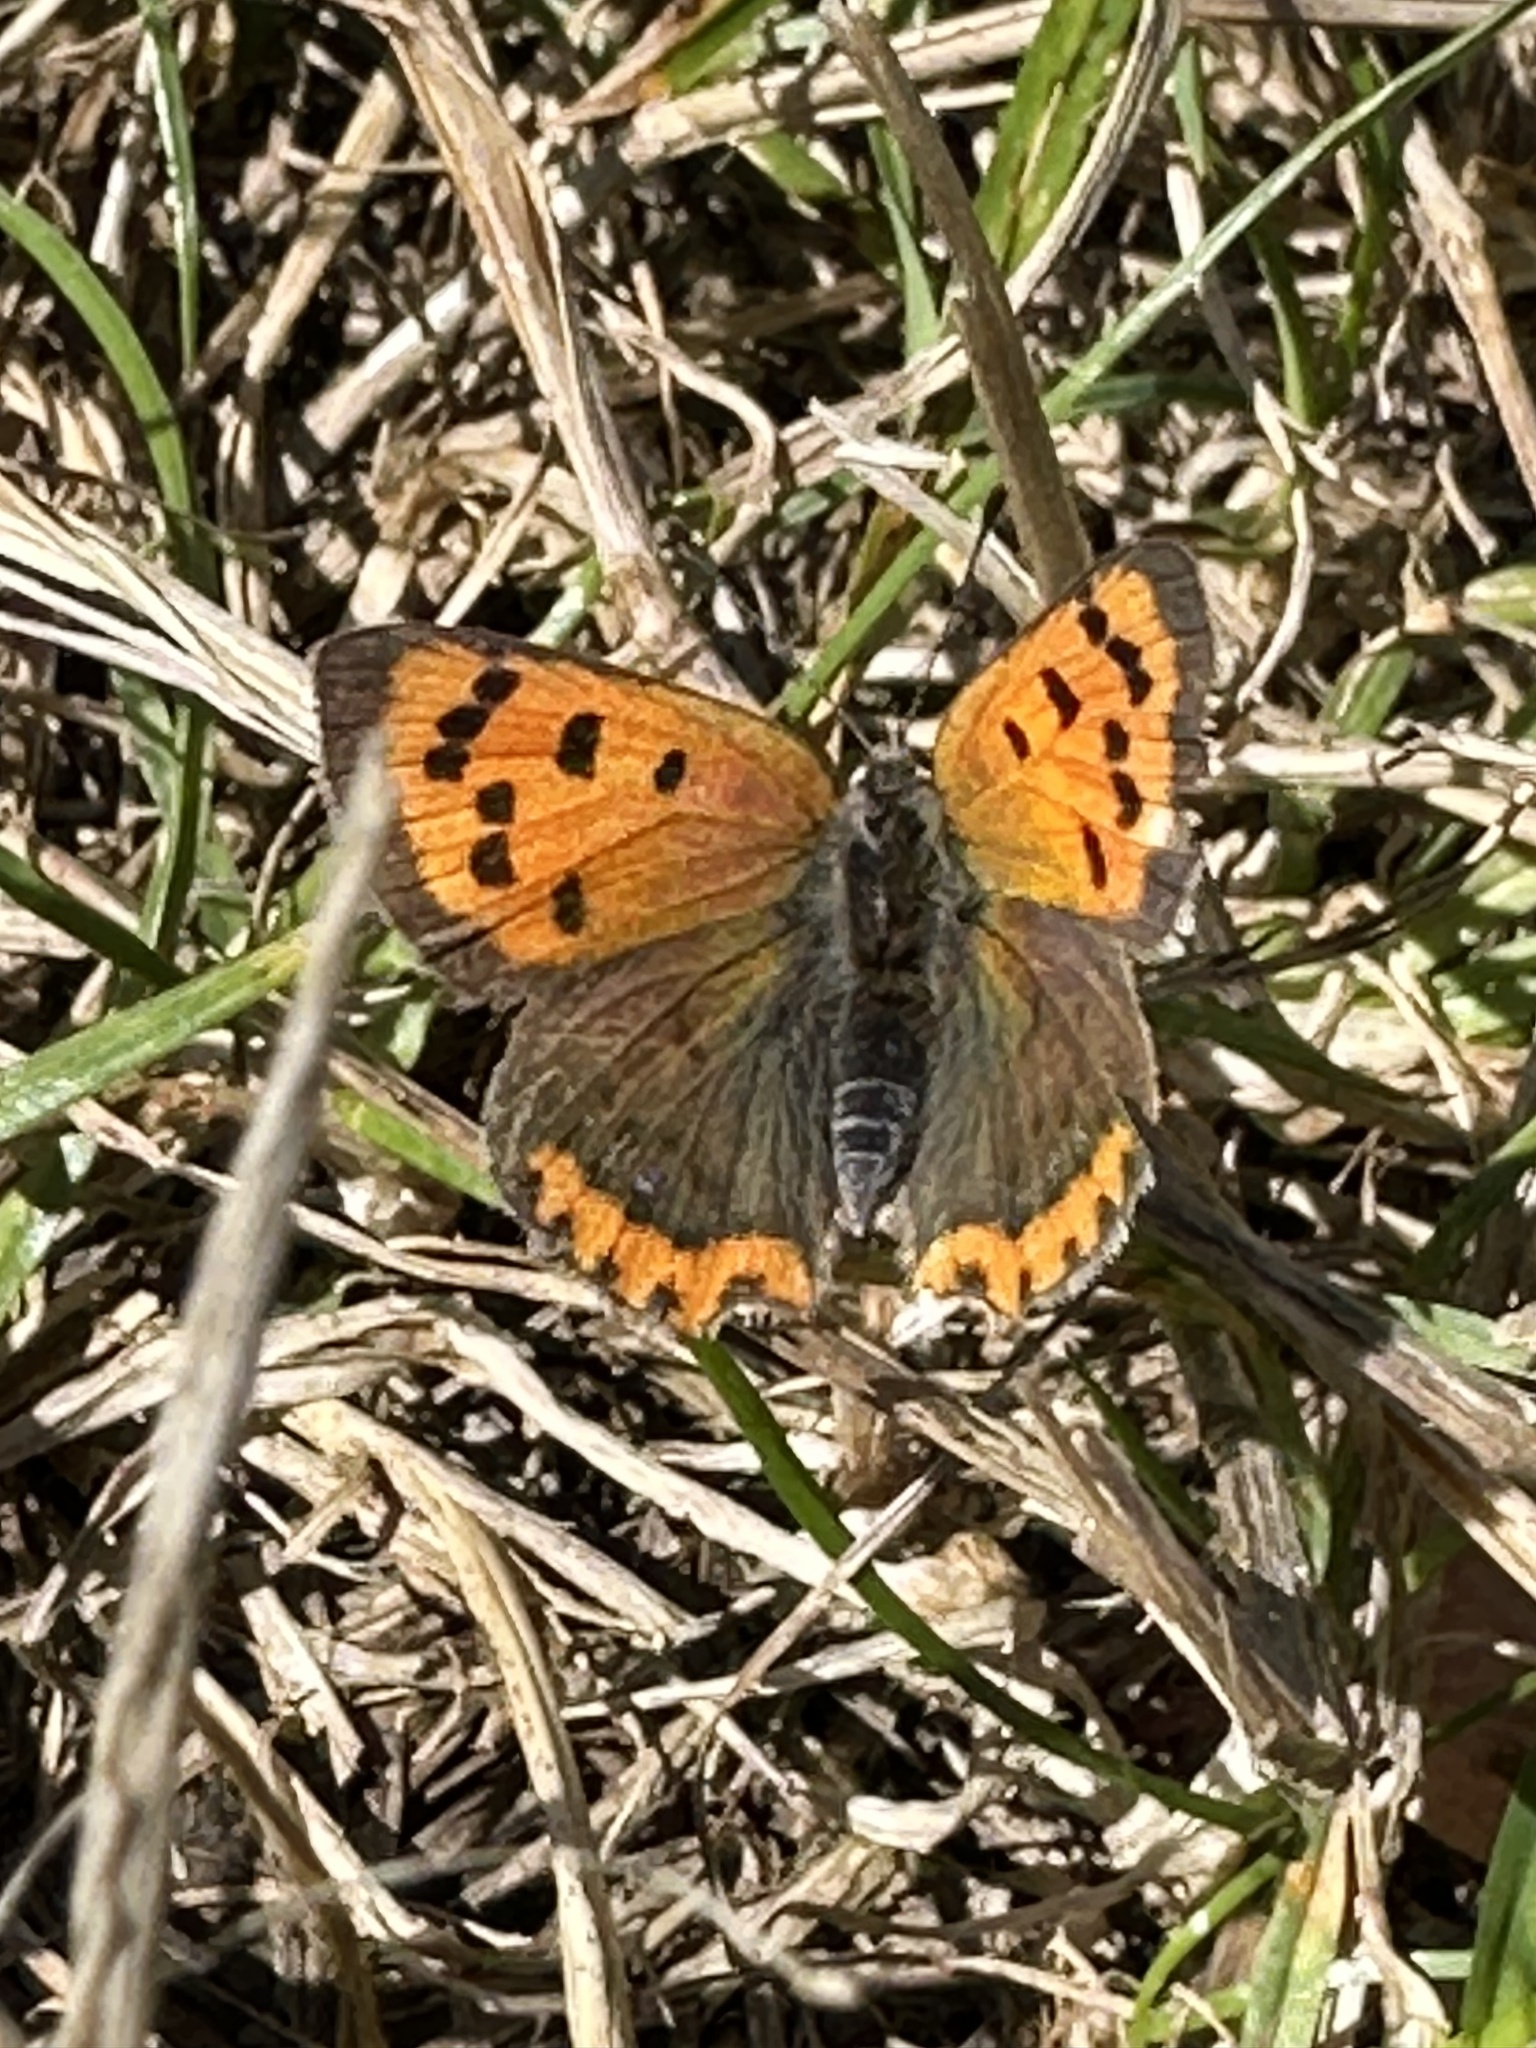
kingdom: Animalia
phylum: Arthropoda
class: Insecta
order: Lepidoptera
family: Lycaenidae
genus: Lycaena
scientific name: Lycaena phlaeas
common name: Small copper
